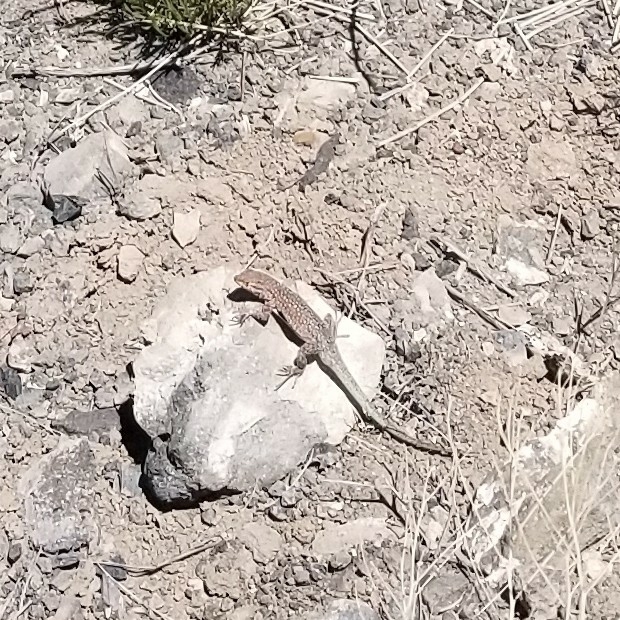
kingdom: Animalia
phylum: Chordata
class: Squamata
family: Phrynosomatidae
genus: Uta
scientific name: Uta stansburiana
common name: Side-blotched lizard
